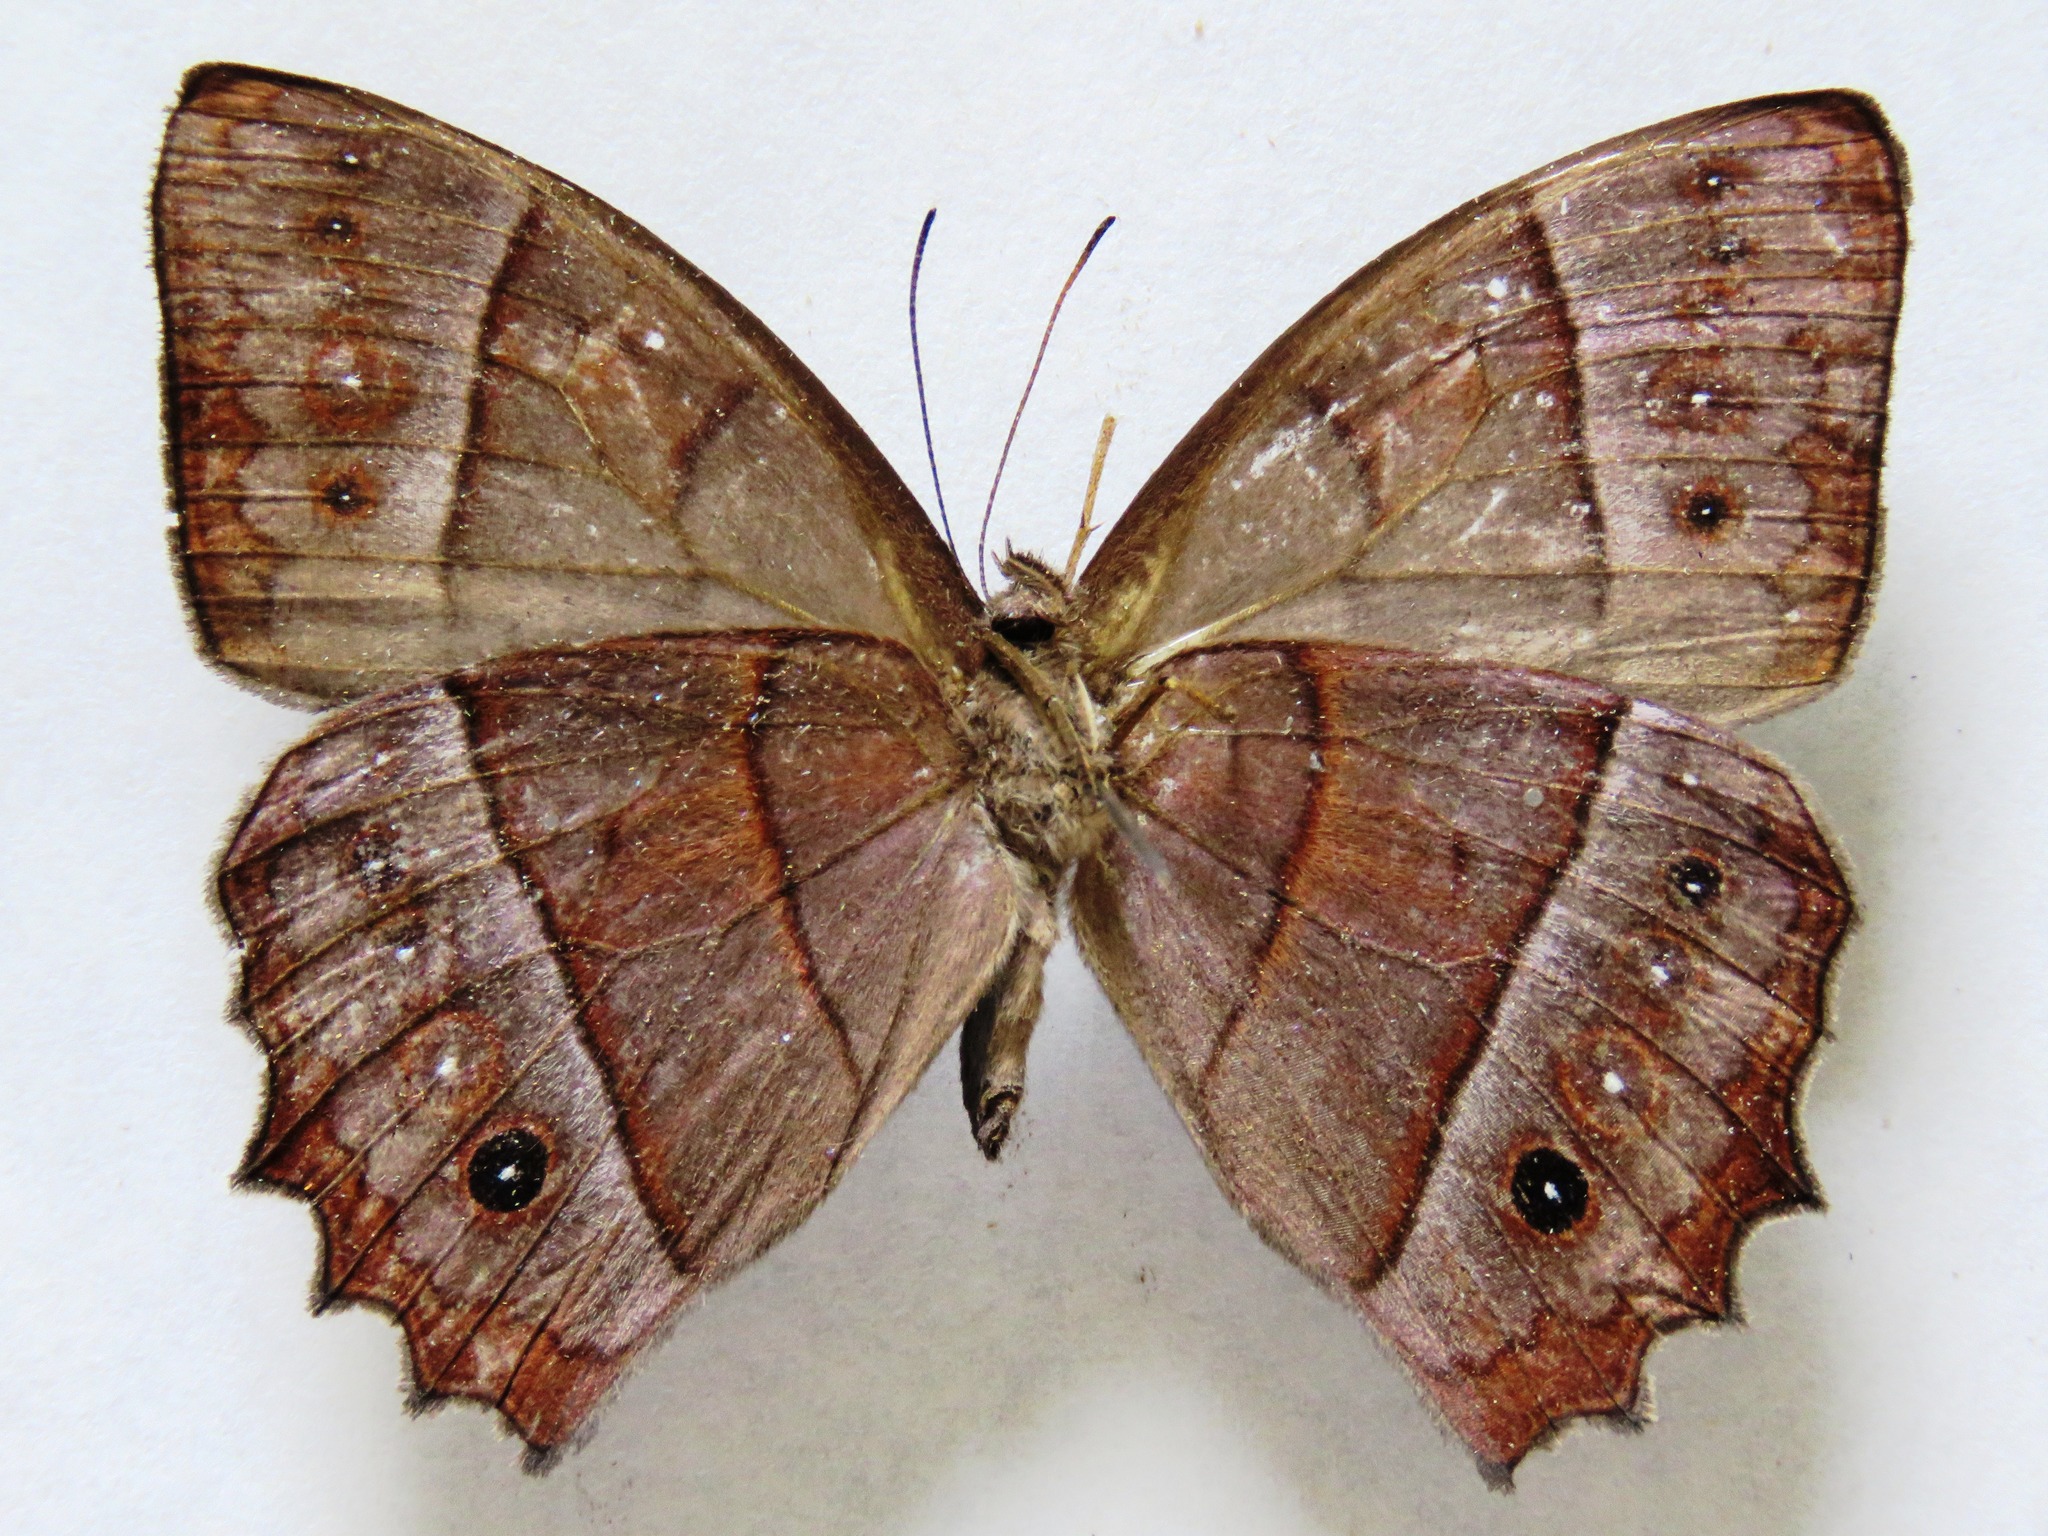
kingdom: Animalia
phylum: Arthropoda
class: Insecta
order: Lepidoptera
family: Nymphalidae
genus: Taygetis
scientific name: Taygetis salvini
